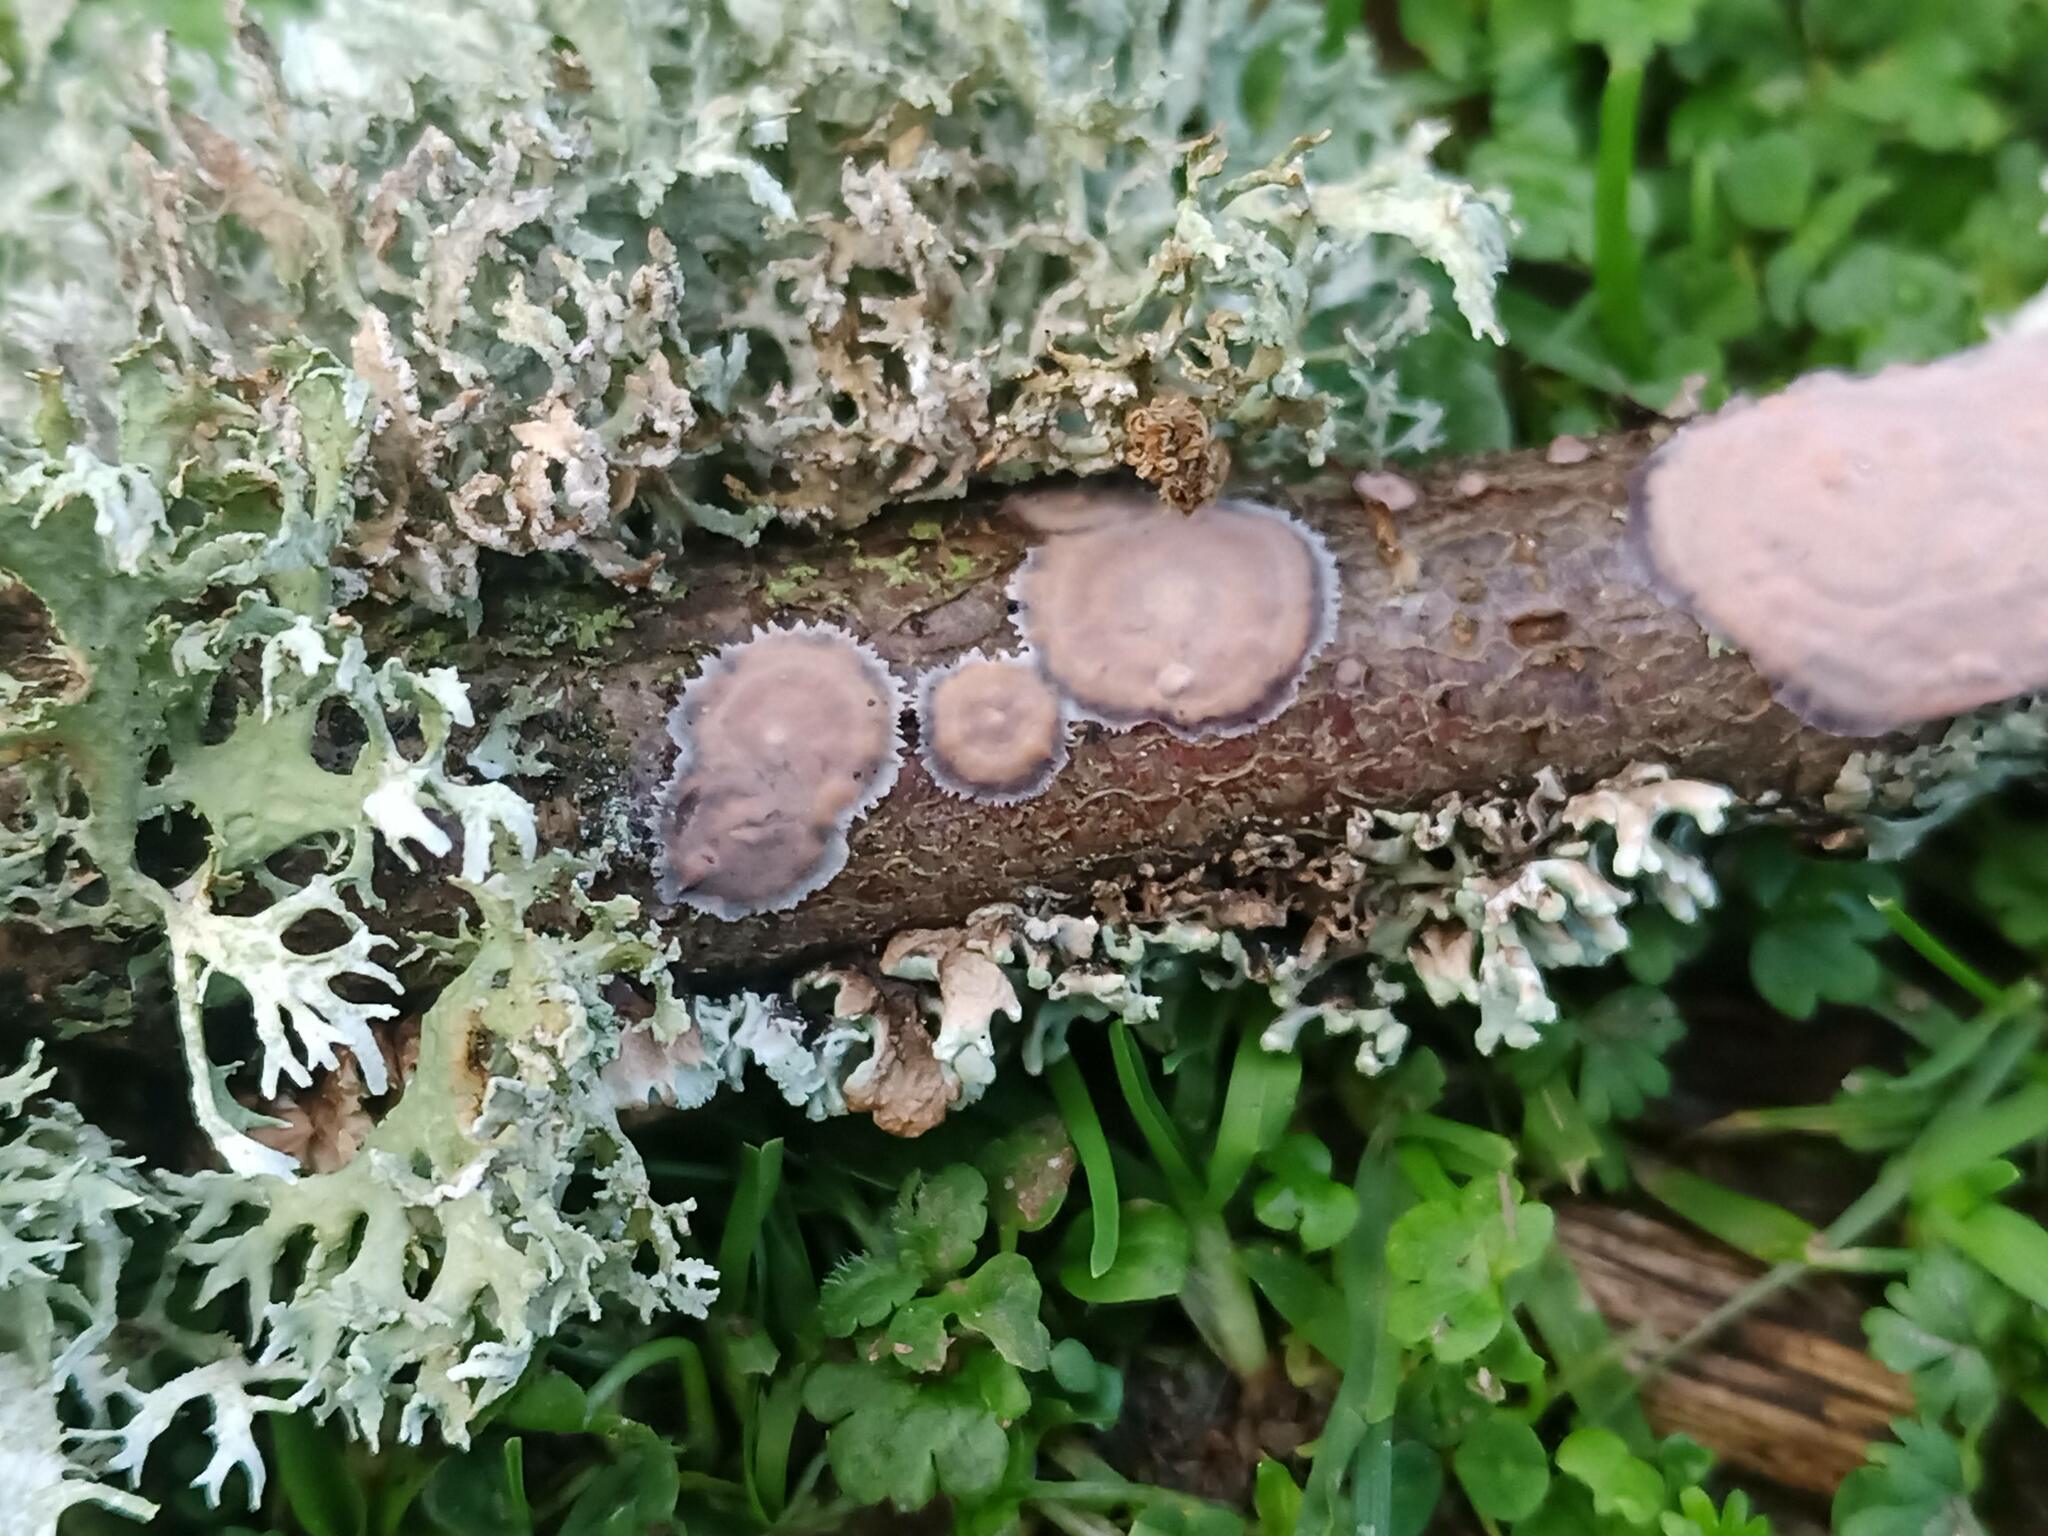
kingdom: Fungi
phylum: Basidiomycota
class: Agaricomycetes
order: Russulales
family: Peniophoraceae
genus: Peniophora
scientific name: Peniophora quercina
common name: Oak crust
